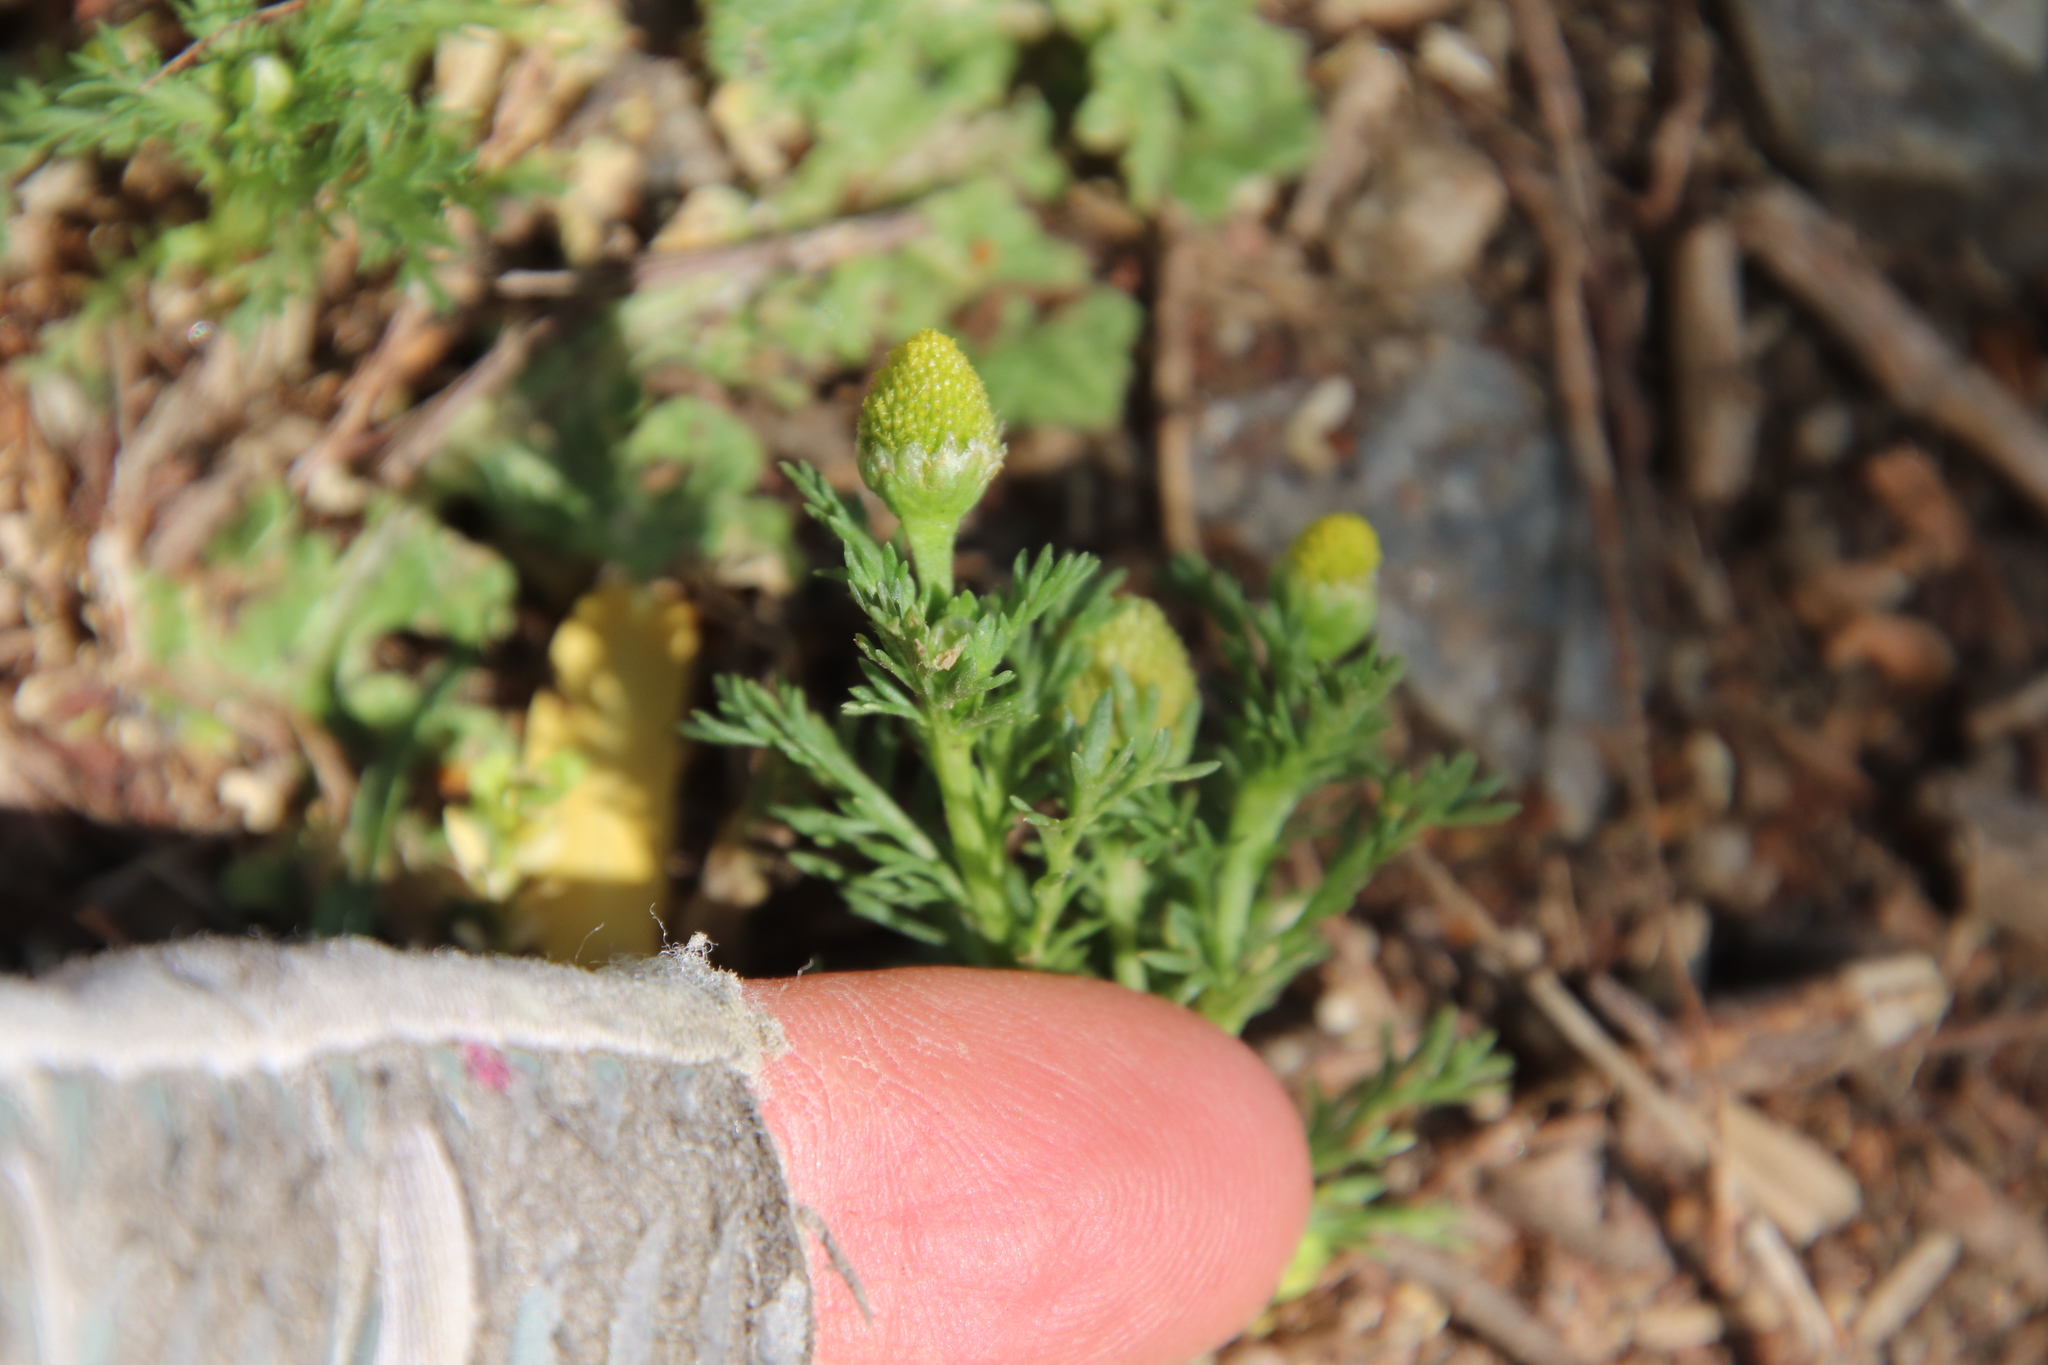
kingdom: Plantae
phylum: Tracheophyta
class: Magnoliopsida
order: Asterales
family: Asteraceae
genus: Matricaria
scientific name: Matricaria discoidea
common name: Disc mayweed
